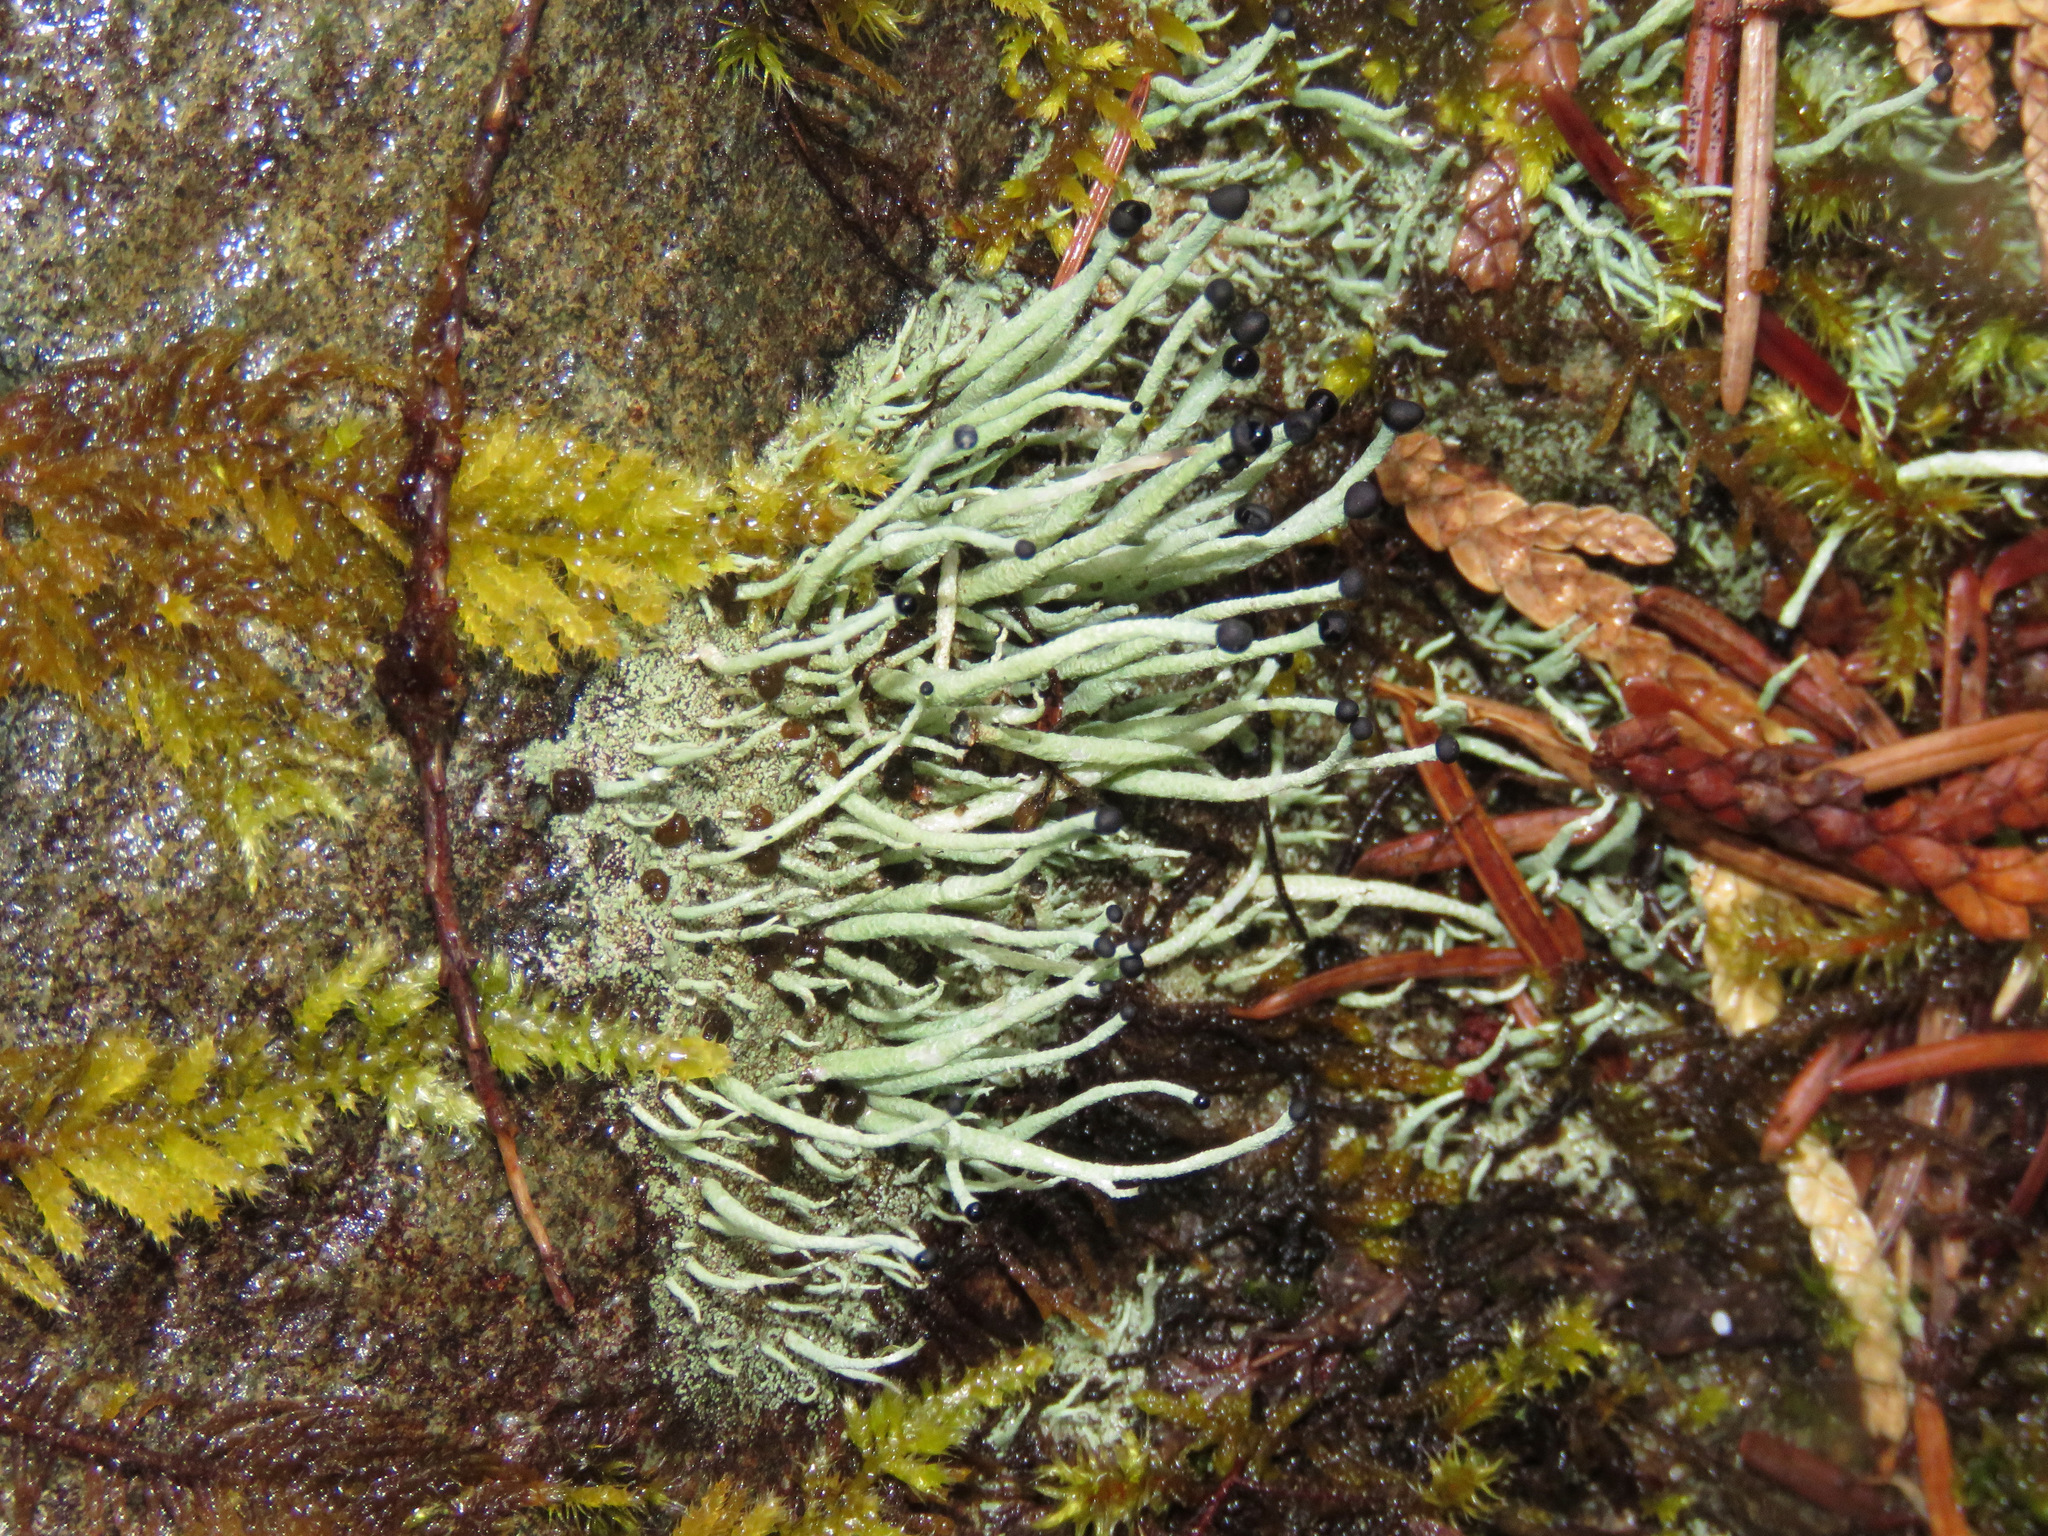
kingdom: Fungi
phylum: Ascomycota
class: Lecanoromycetes
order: Lecanorales
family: Cladoniaceae
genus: Pilophorus
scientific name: Pilophorus acicularis
